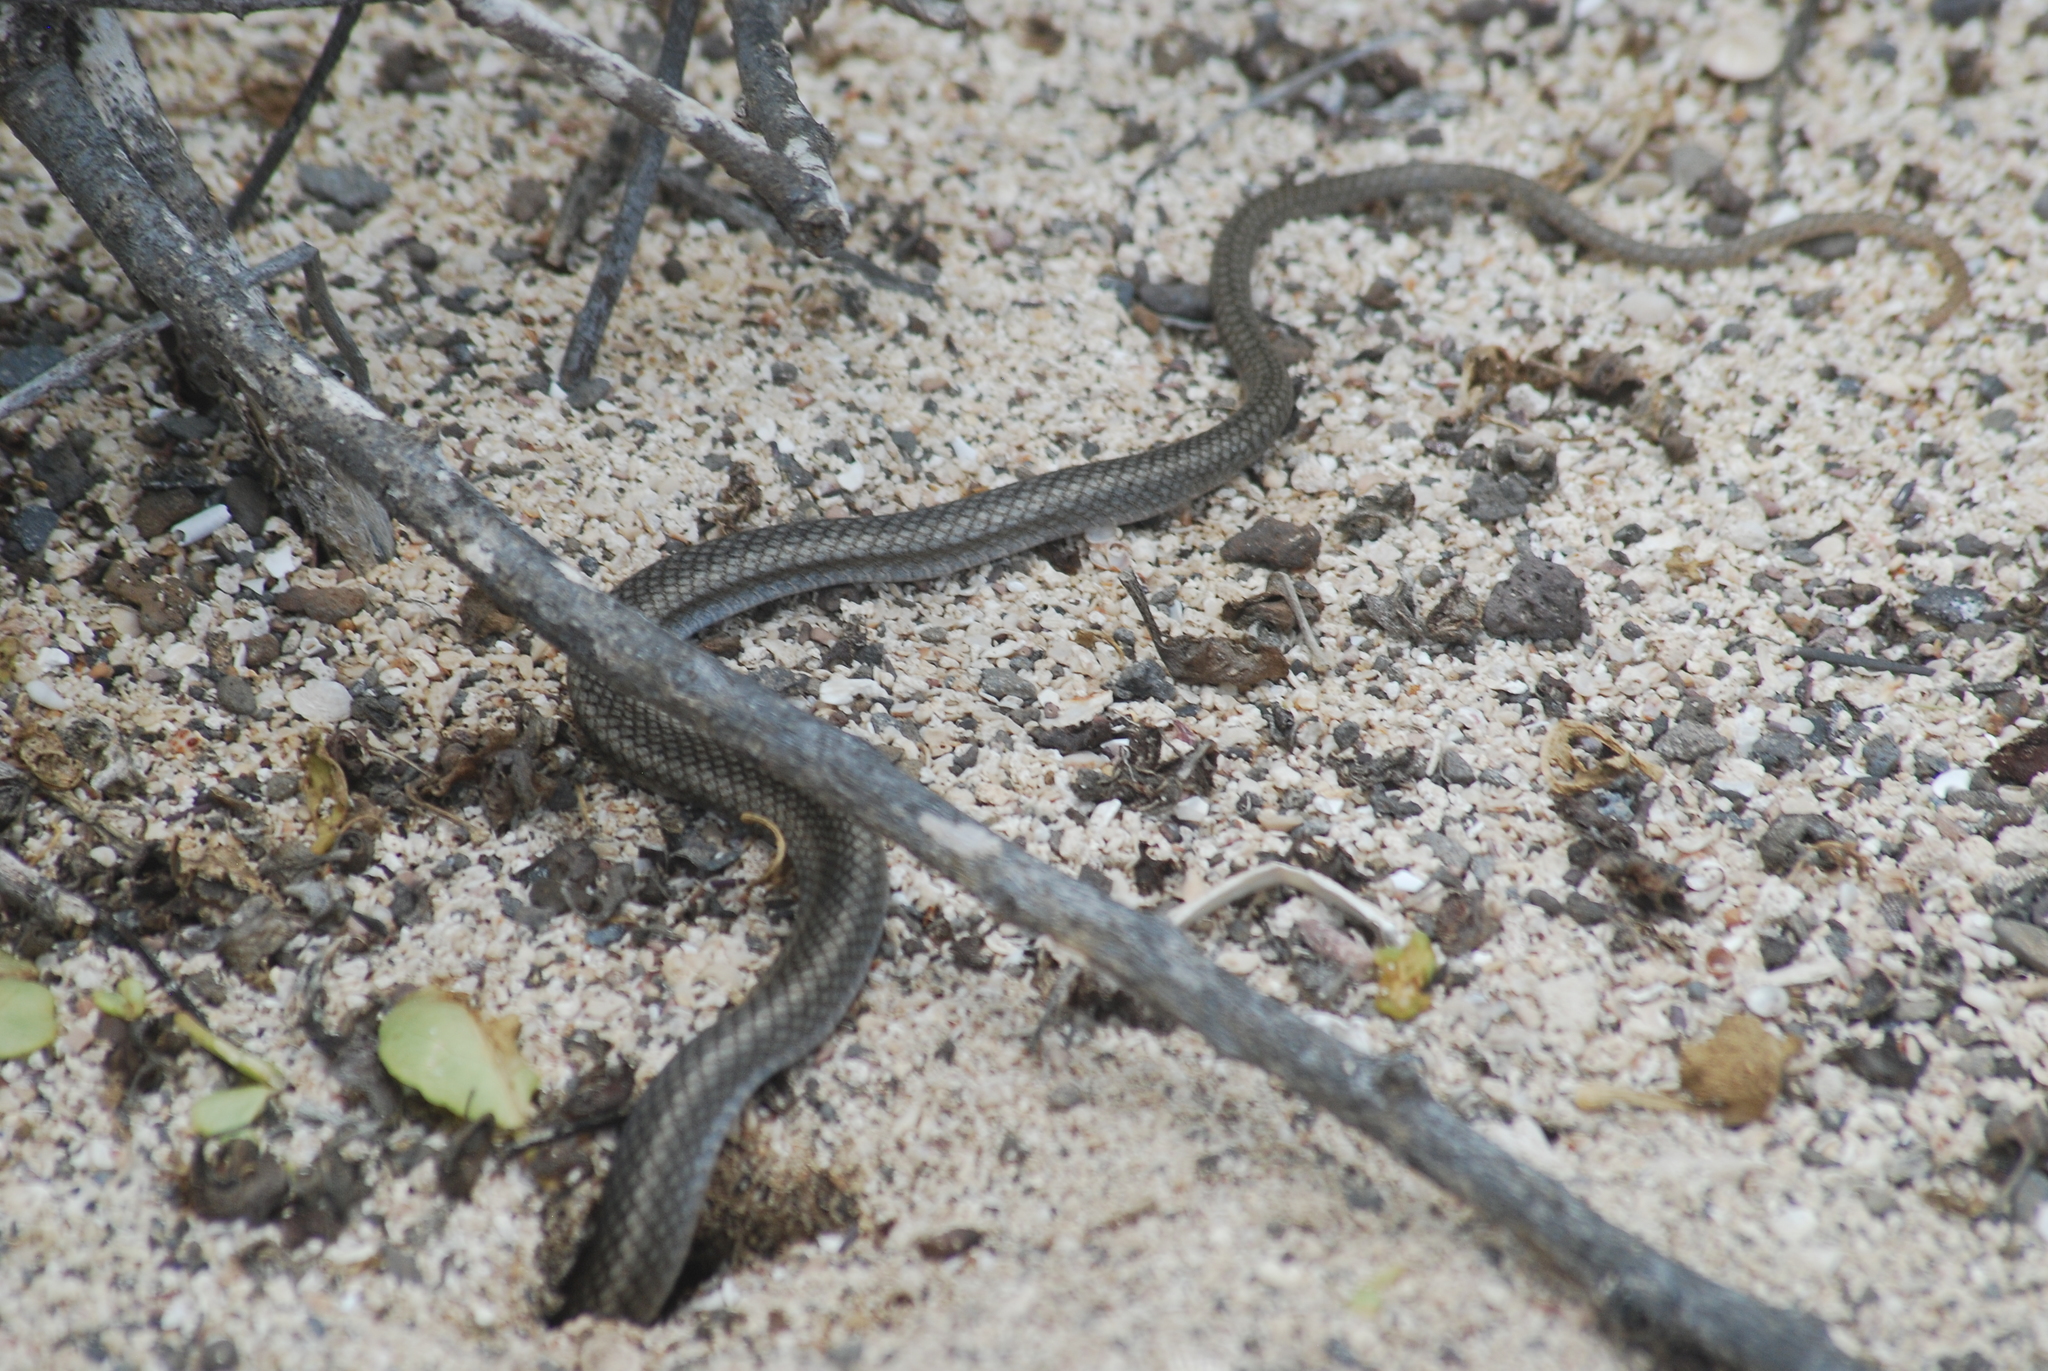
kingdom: Animalia
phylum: Chordata
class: Squamata
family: Colubridae
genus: Pseudalsophis
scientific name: Pseudalsophis hoodensis
